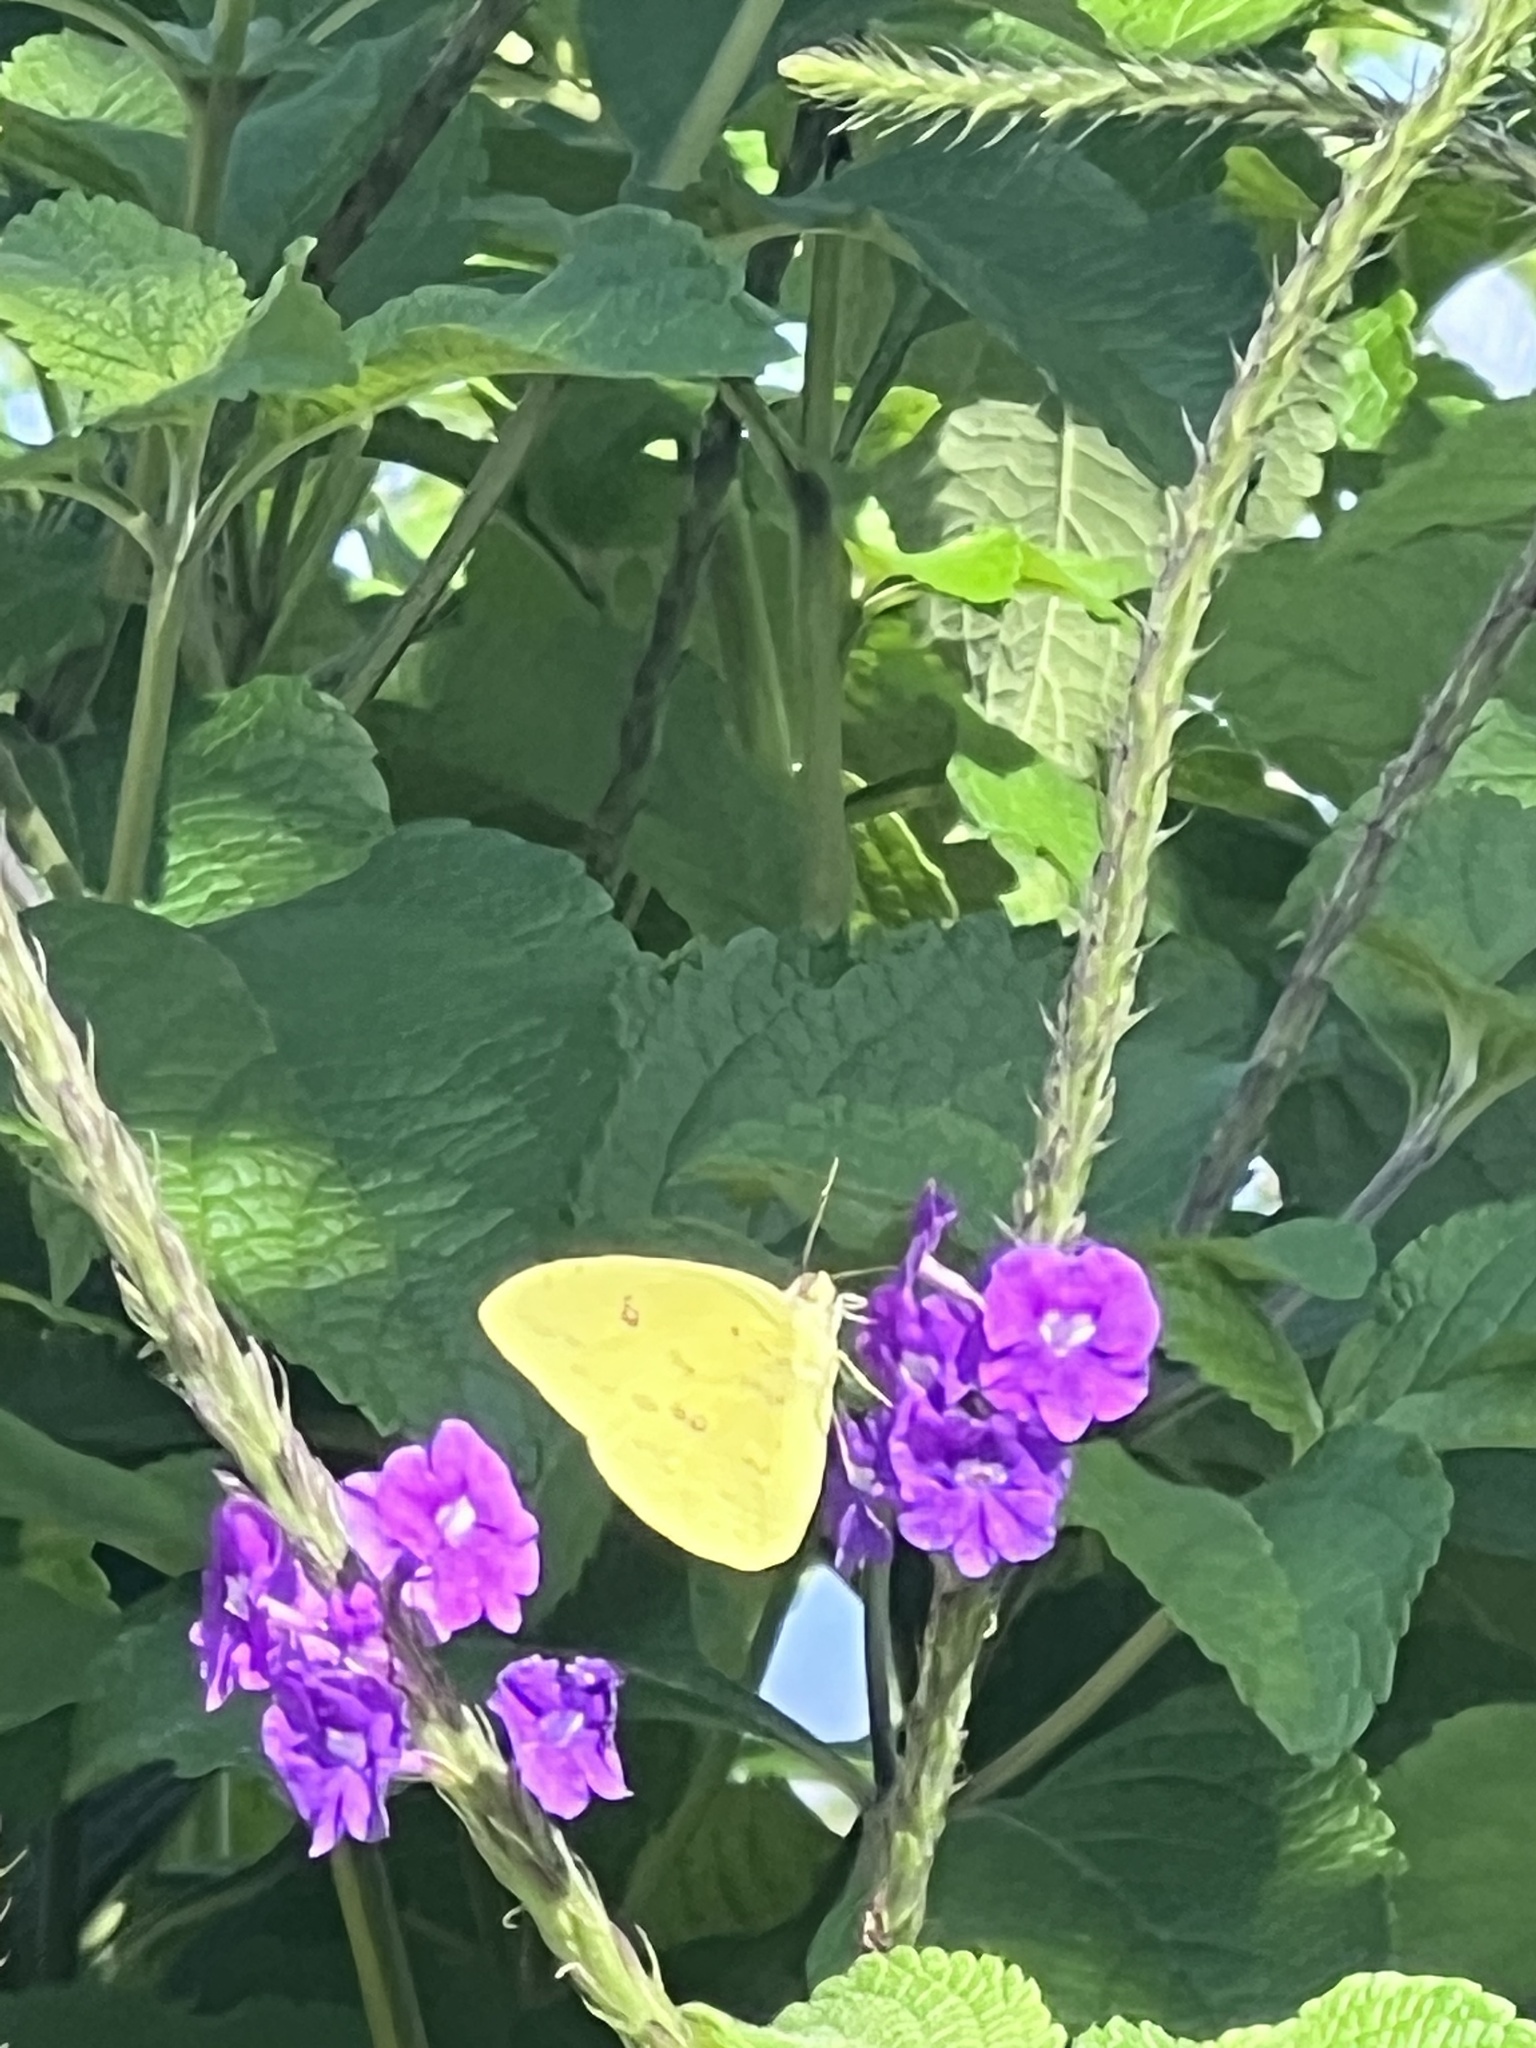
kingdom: Animalia
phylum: Arthropoda
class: Insecta
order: Lepidoptera
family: Pieridae
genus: Phoebis
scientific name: Phoebis sennae
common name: Cloudless sulphur
